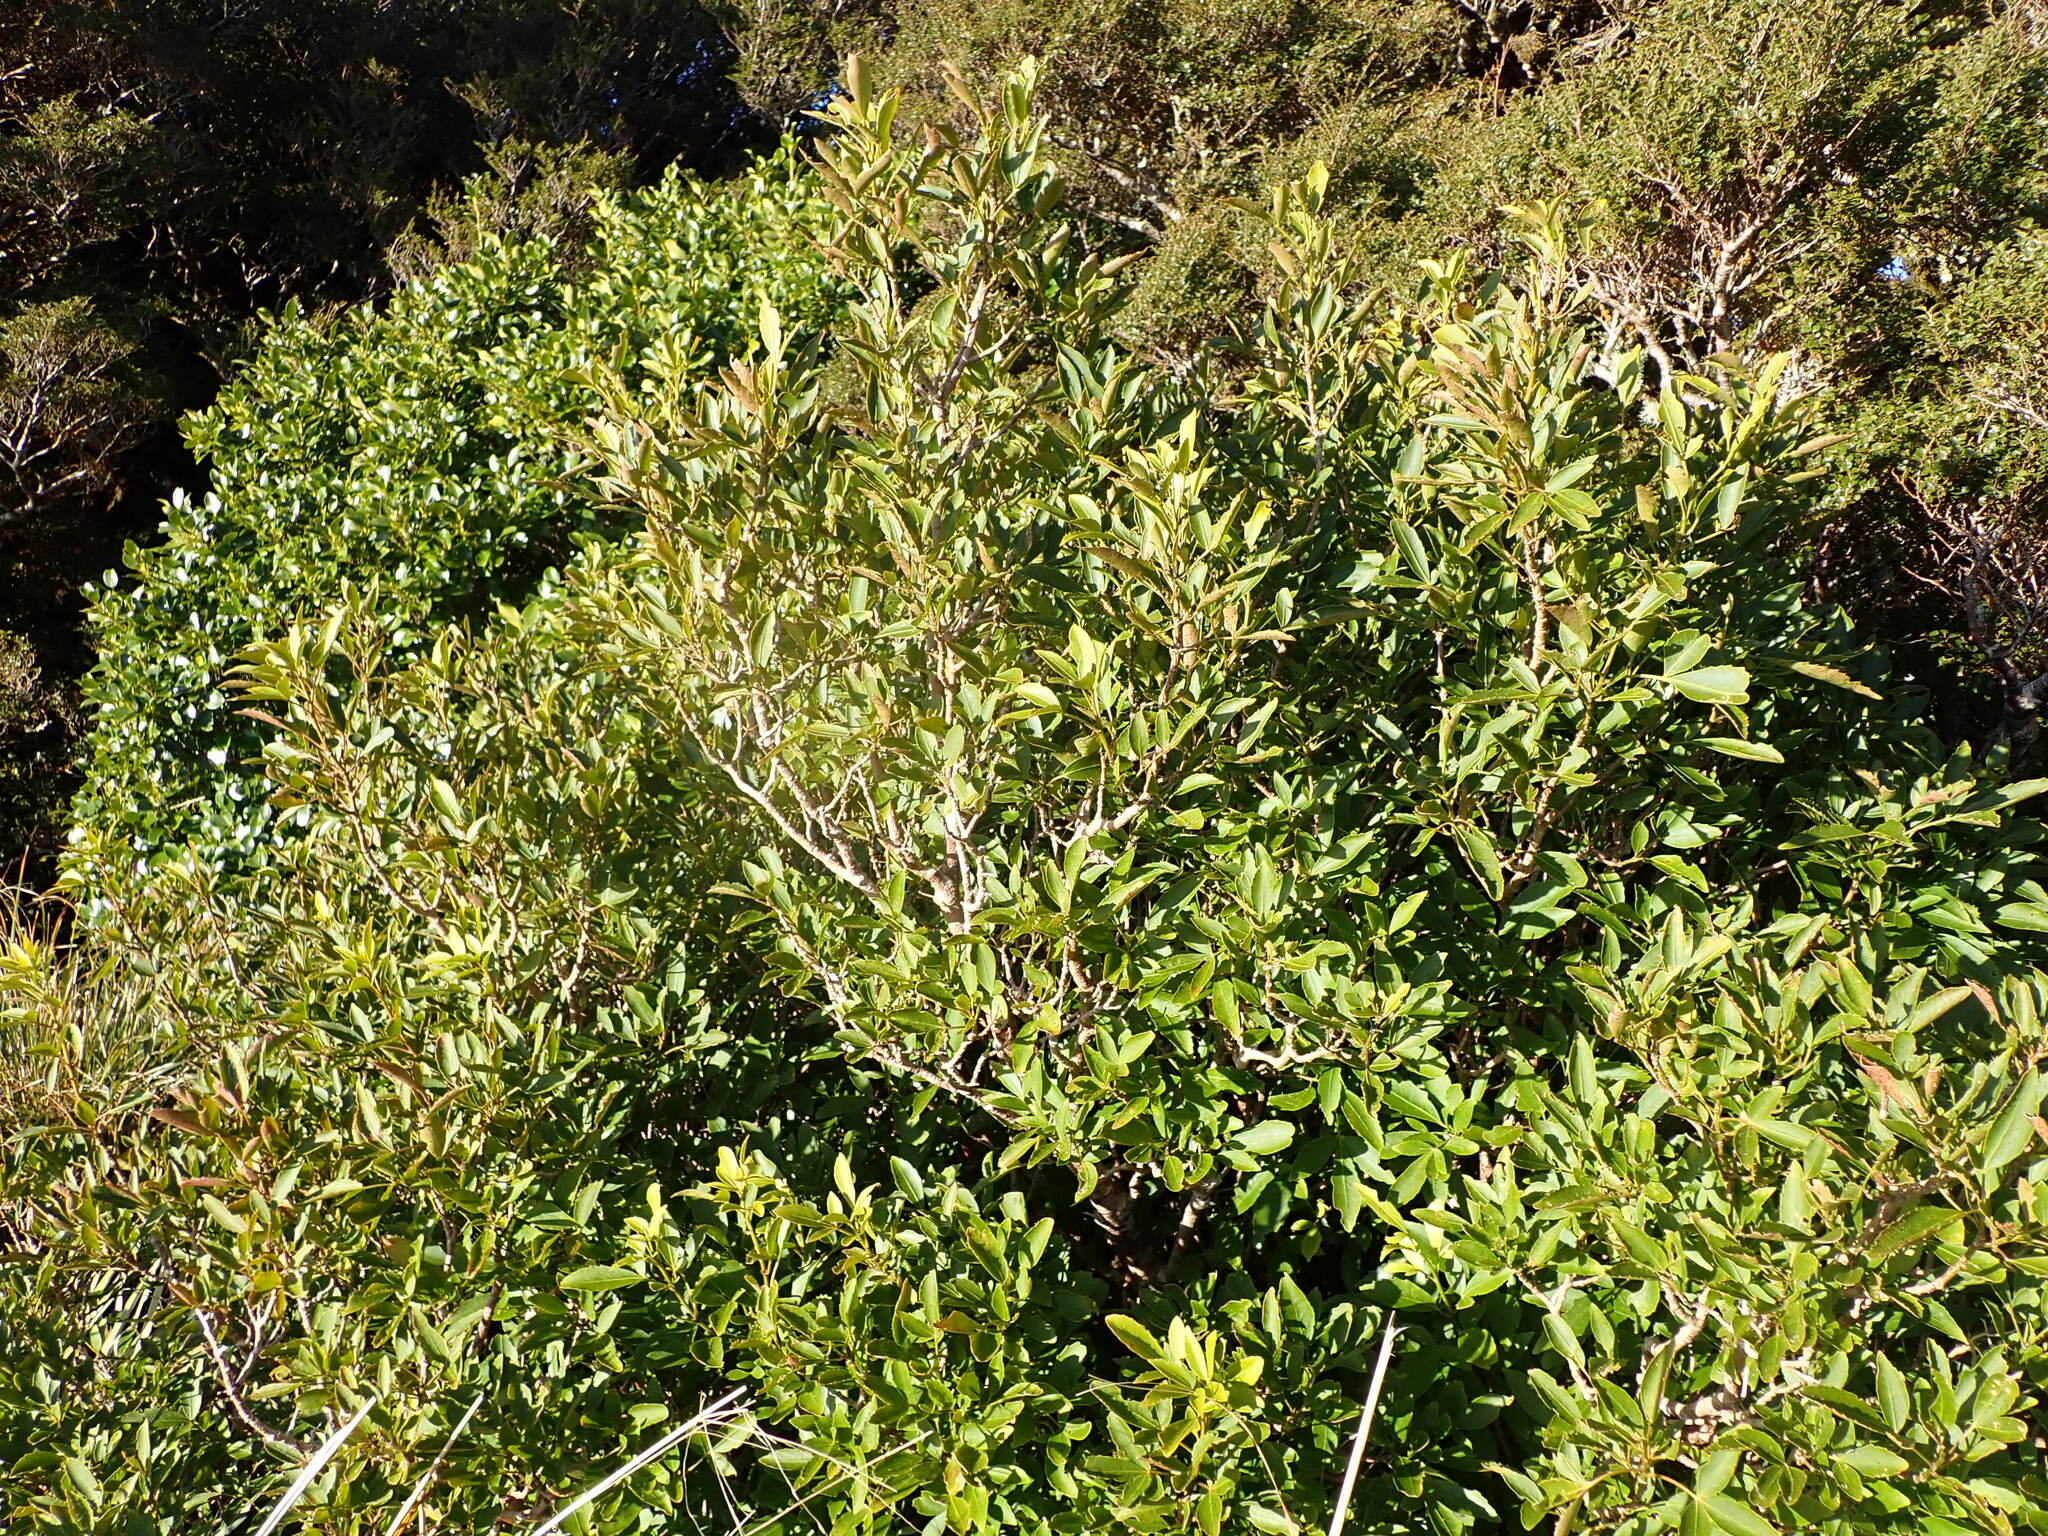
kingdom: Plantae
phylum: Tracheophyta
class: Magnoliopsida
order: Apiales
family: Araliaceae
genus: Raukaua
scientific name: Raukaua simplex
